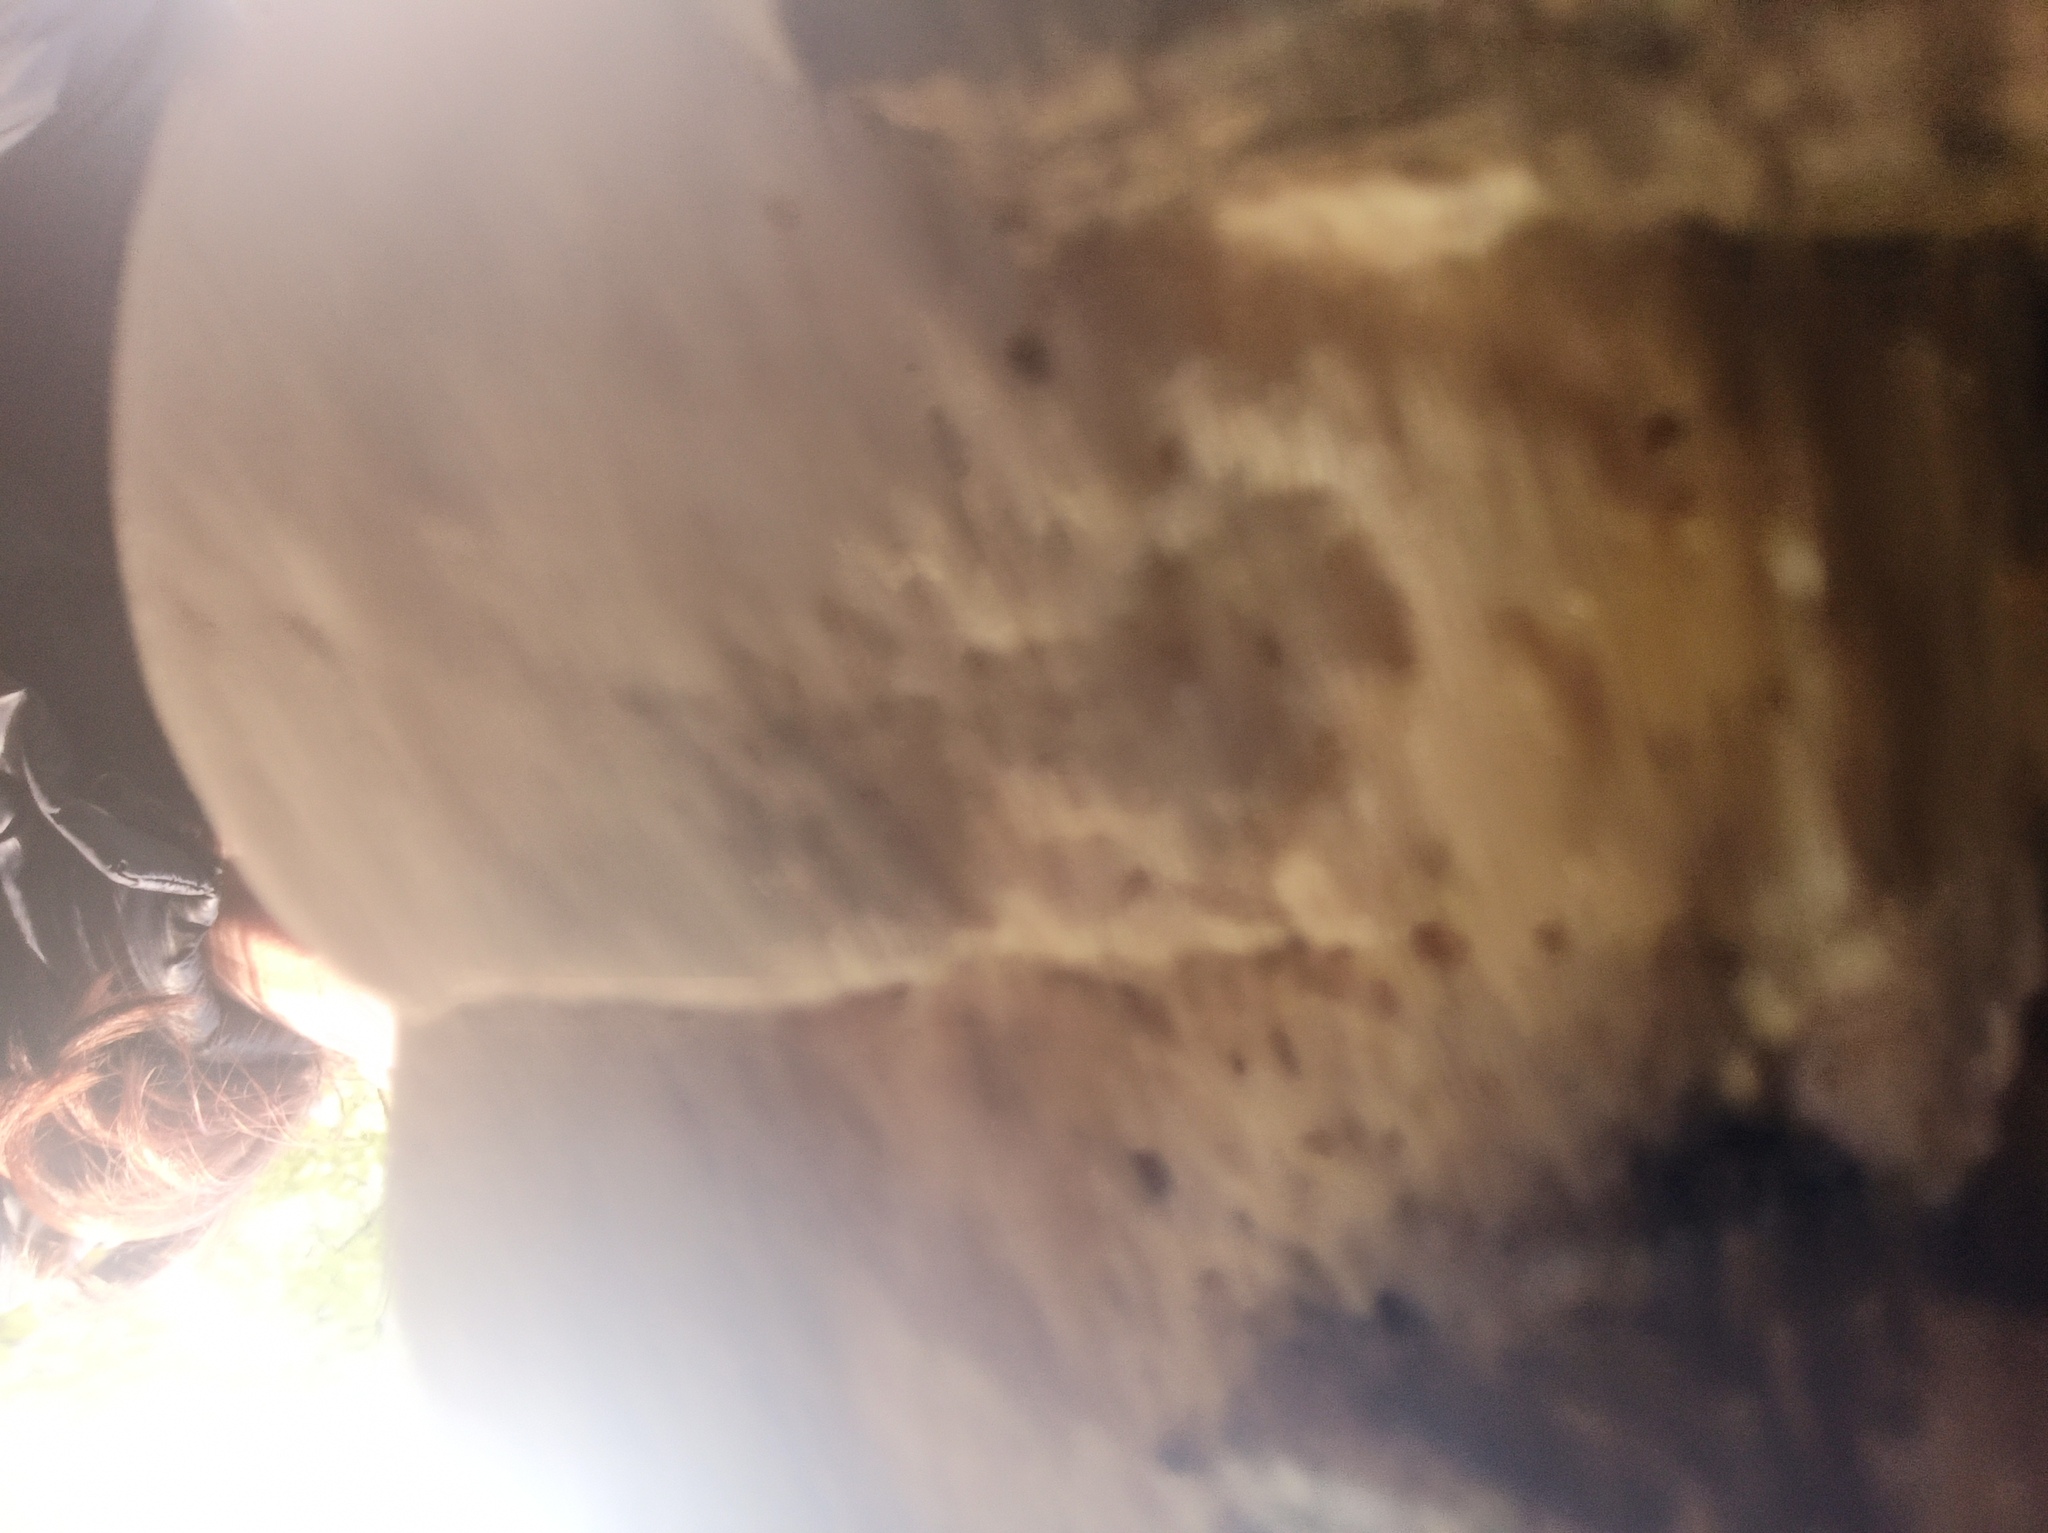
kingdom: Fungi
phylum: Basidiomycota
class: Agaricomycetes
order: Polyporales
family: Polyporaceae
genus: Trametes
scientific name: Trametes hirsuta
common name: Hairy bracket
